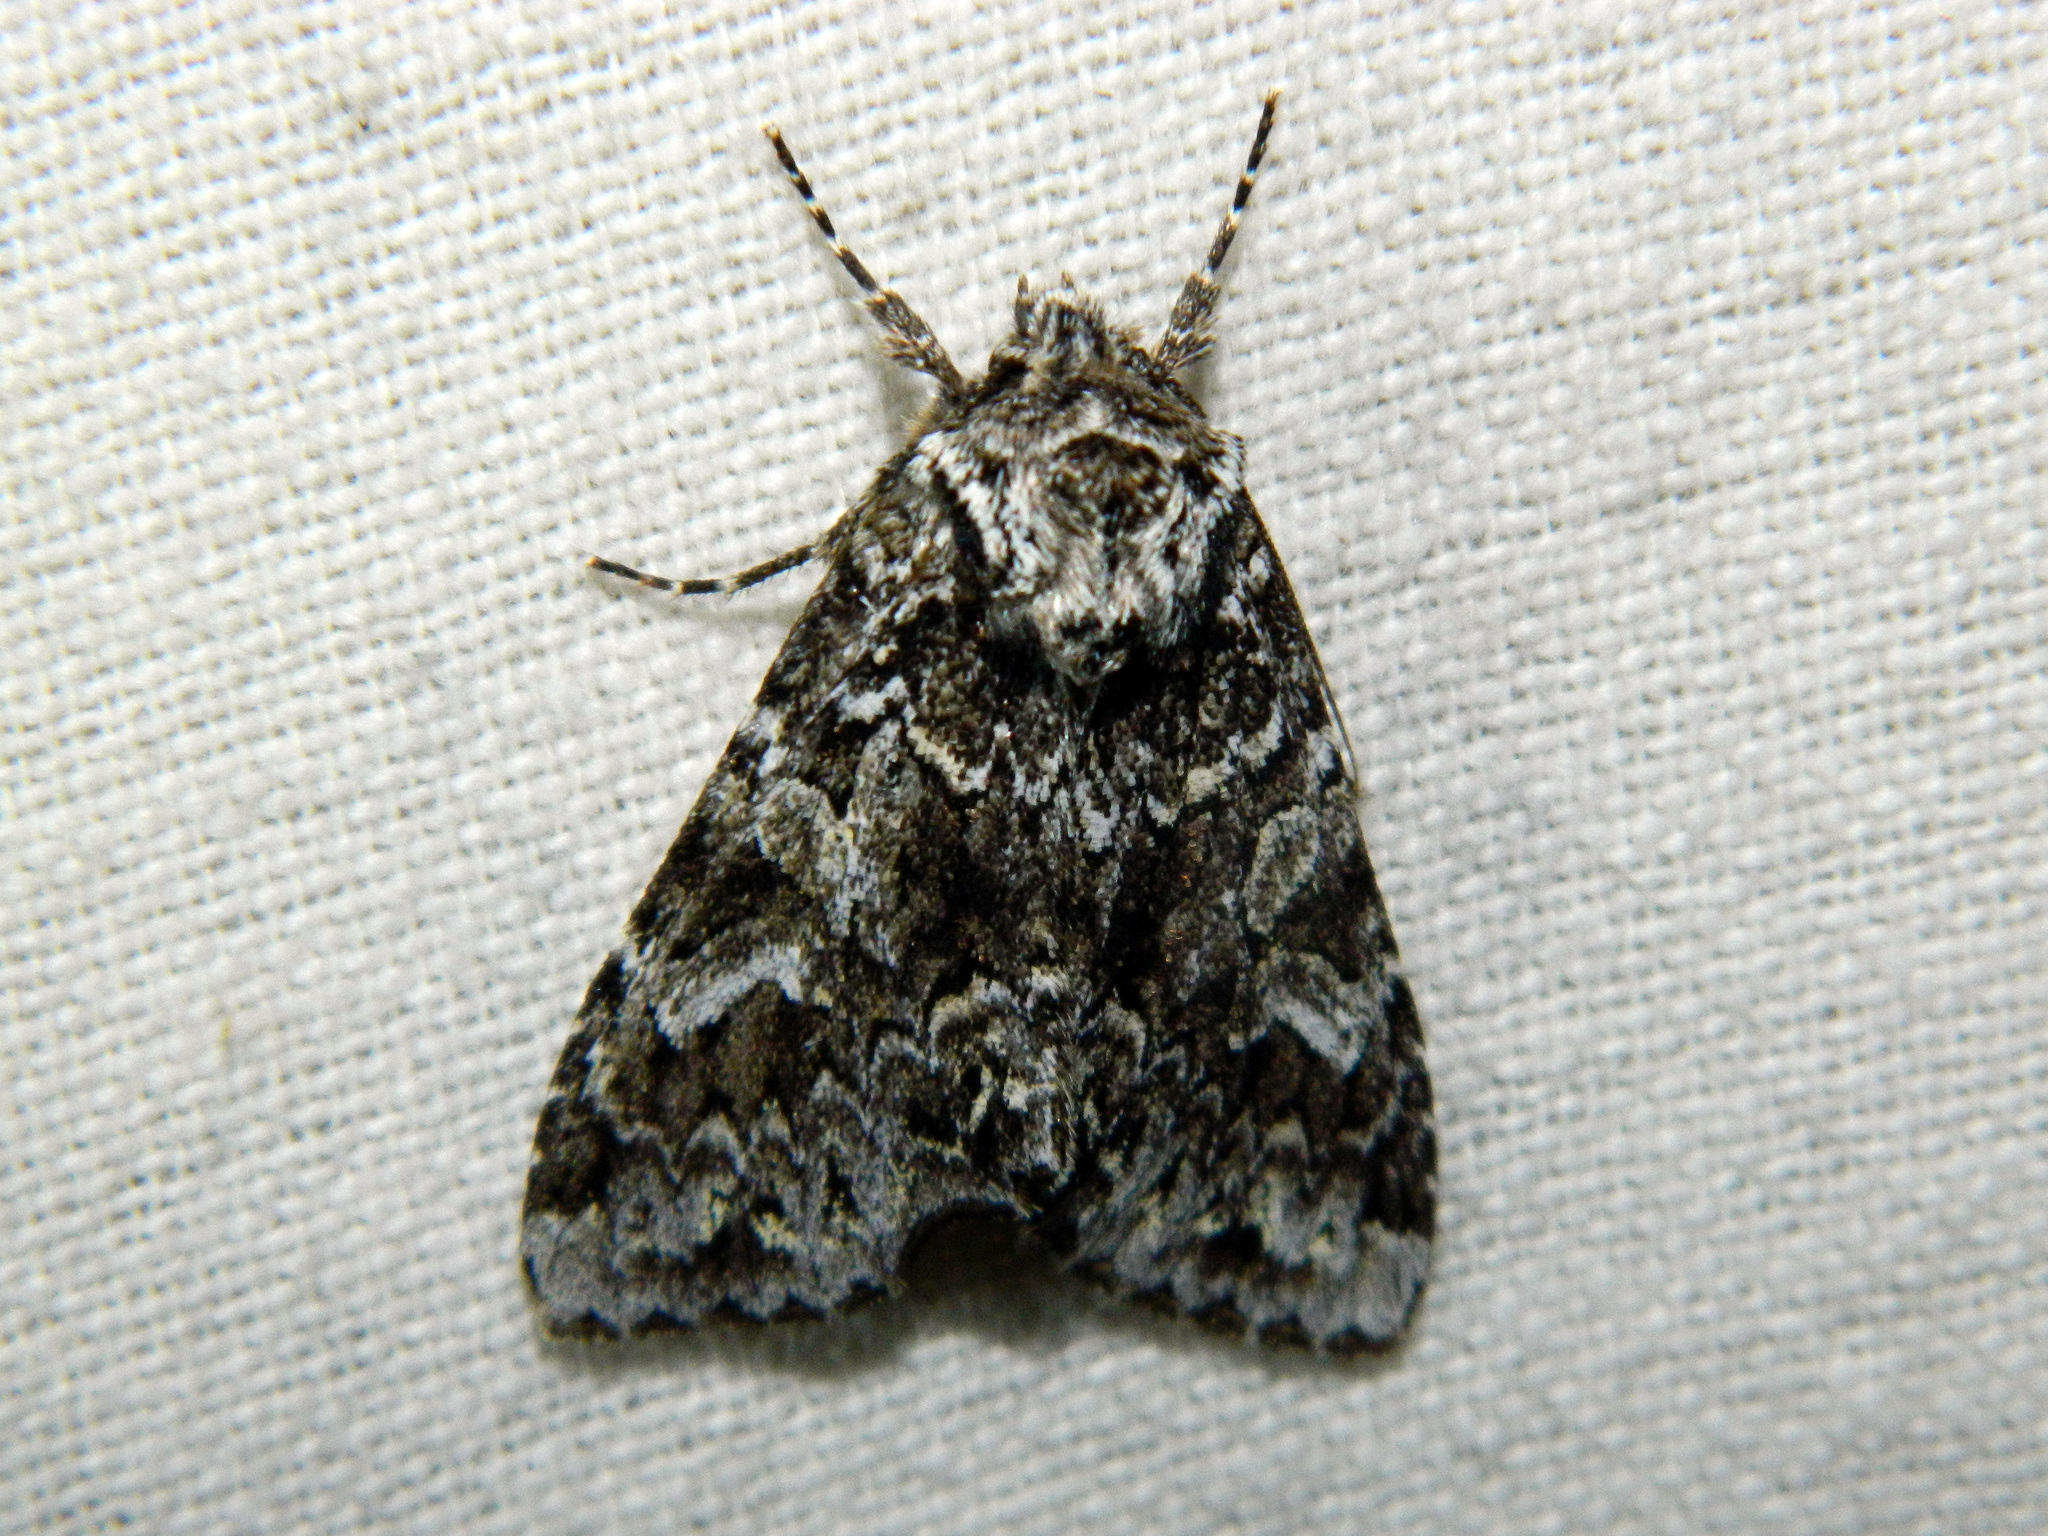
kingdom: Animalia
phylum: Arthropoda
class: Insecta
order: Lepidoptera
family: Noctuidae
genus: Platypolia
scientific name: Platypolia anceps
